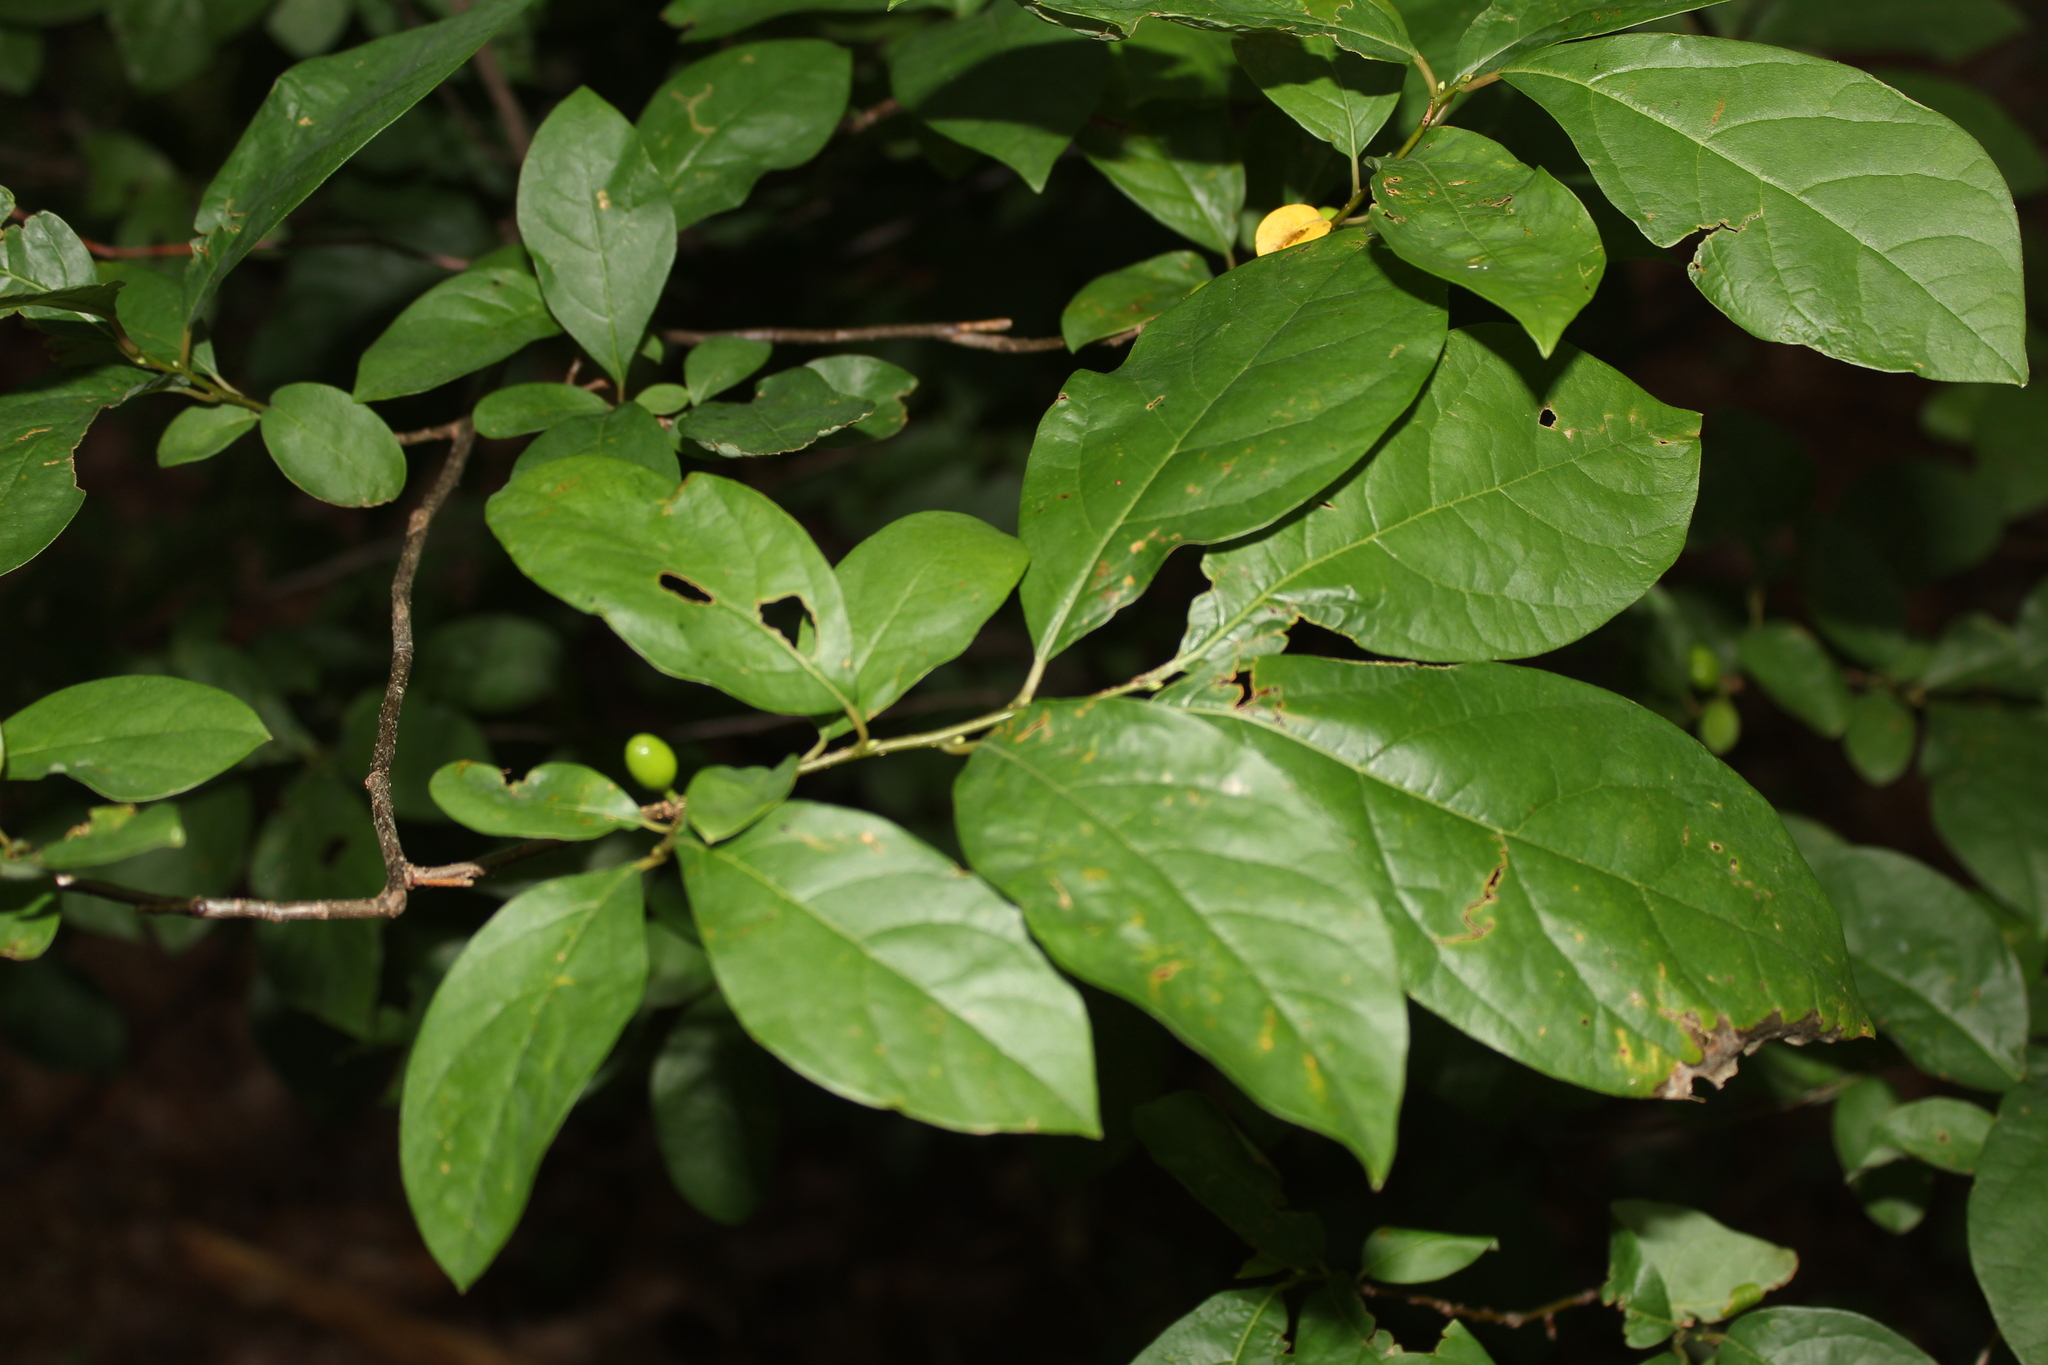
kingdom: Plantae
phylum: Tracheophyta
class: Magnoliopsida
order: Laurales
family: Lauraceae
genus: Lindera
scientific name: Lindera benzoin
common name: Spicebush
